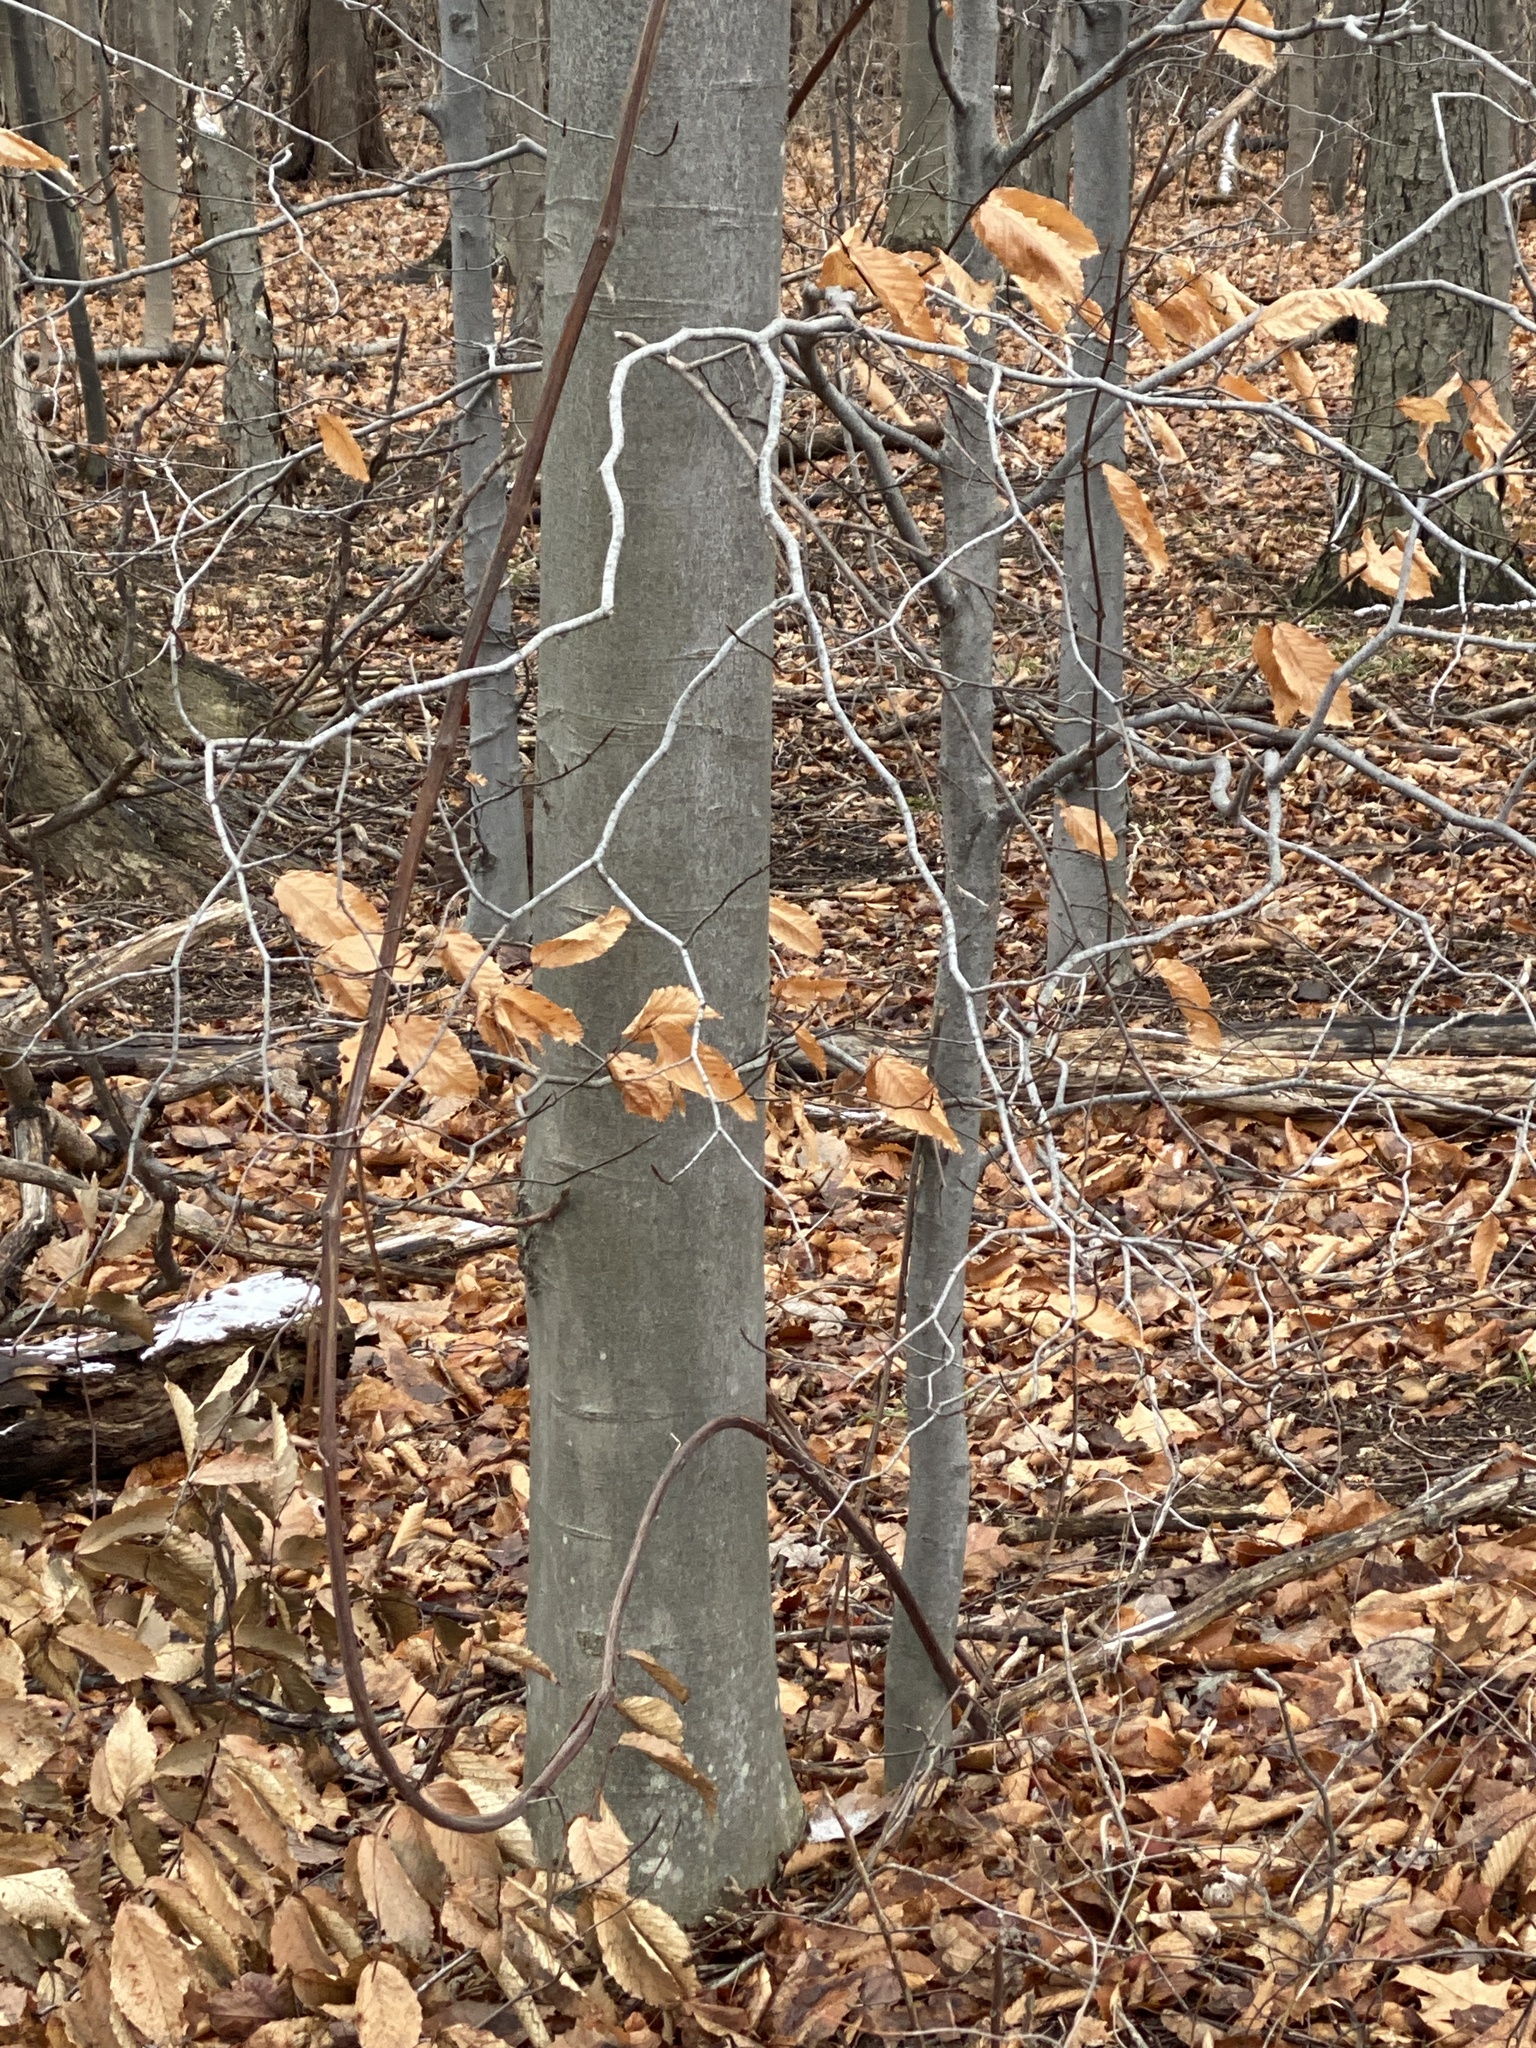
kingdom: Plantae
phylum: Tracheophyta
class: Magnoliopsida
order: Fagales
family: Fagaceae
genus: Fagus
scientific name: Fagus grandifolia
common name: American beech
